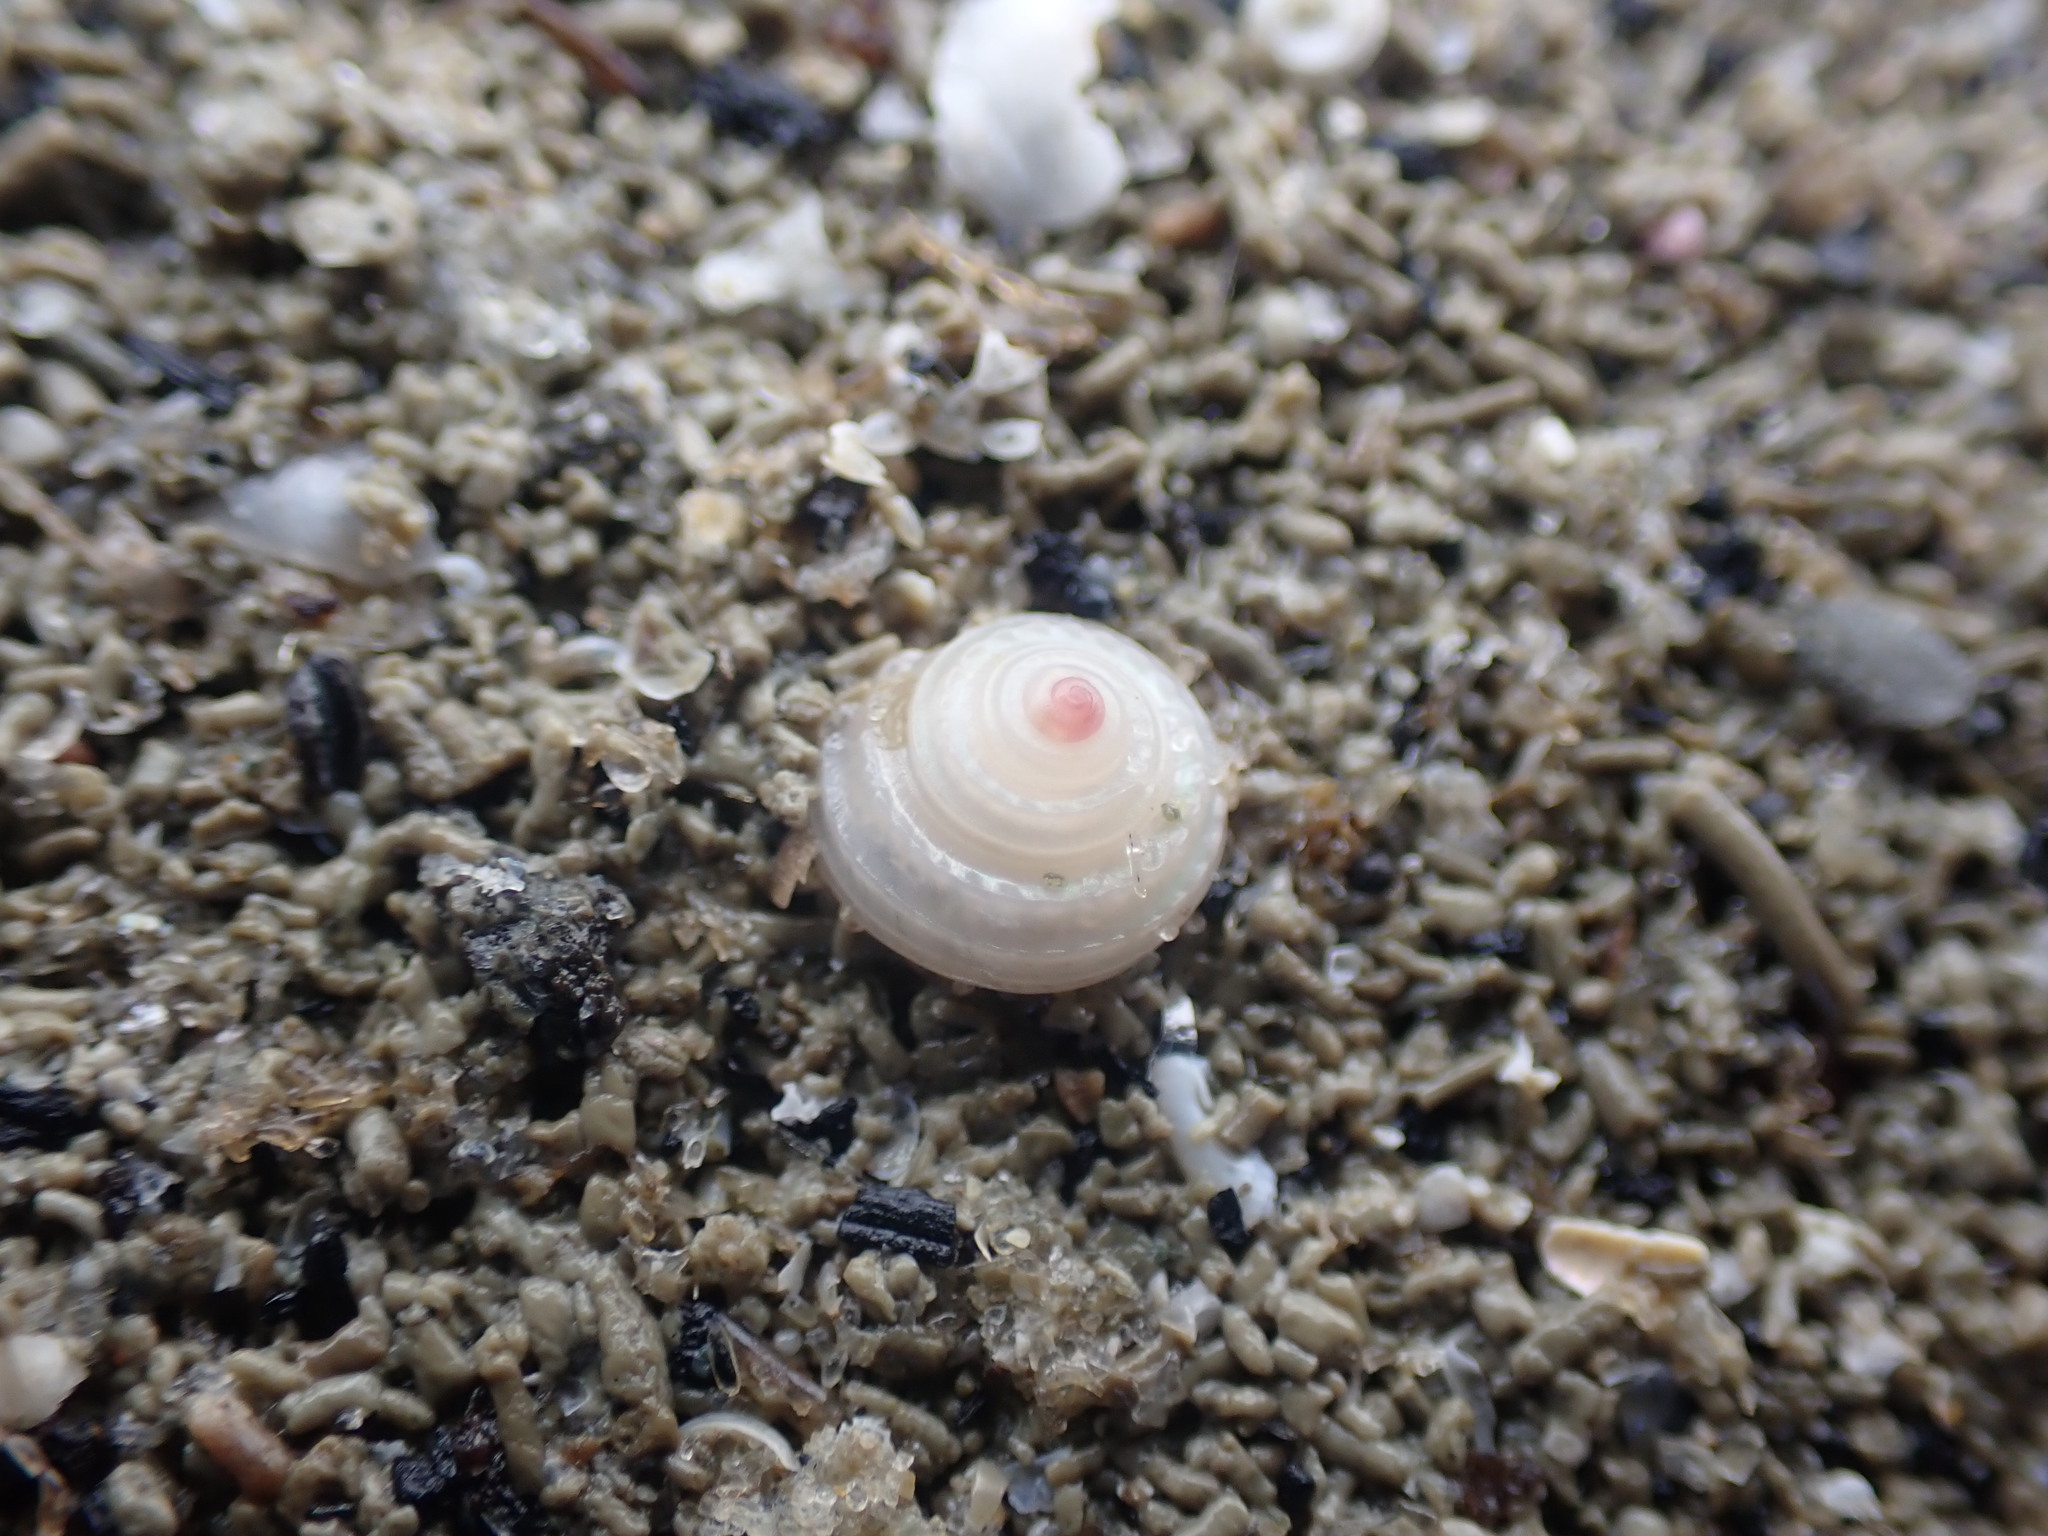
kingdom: Animalia
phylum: Mollusca
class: Gastropoda
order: Trochida
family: Trochidae
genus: Antisolarium
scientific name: Antisolarium egenum
